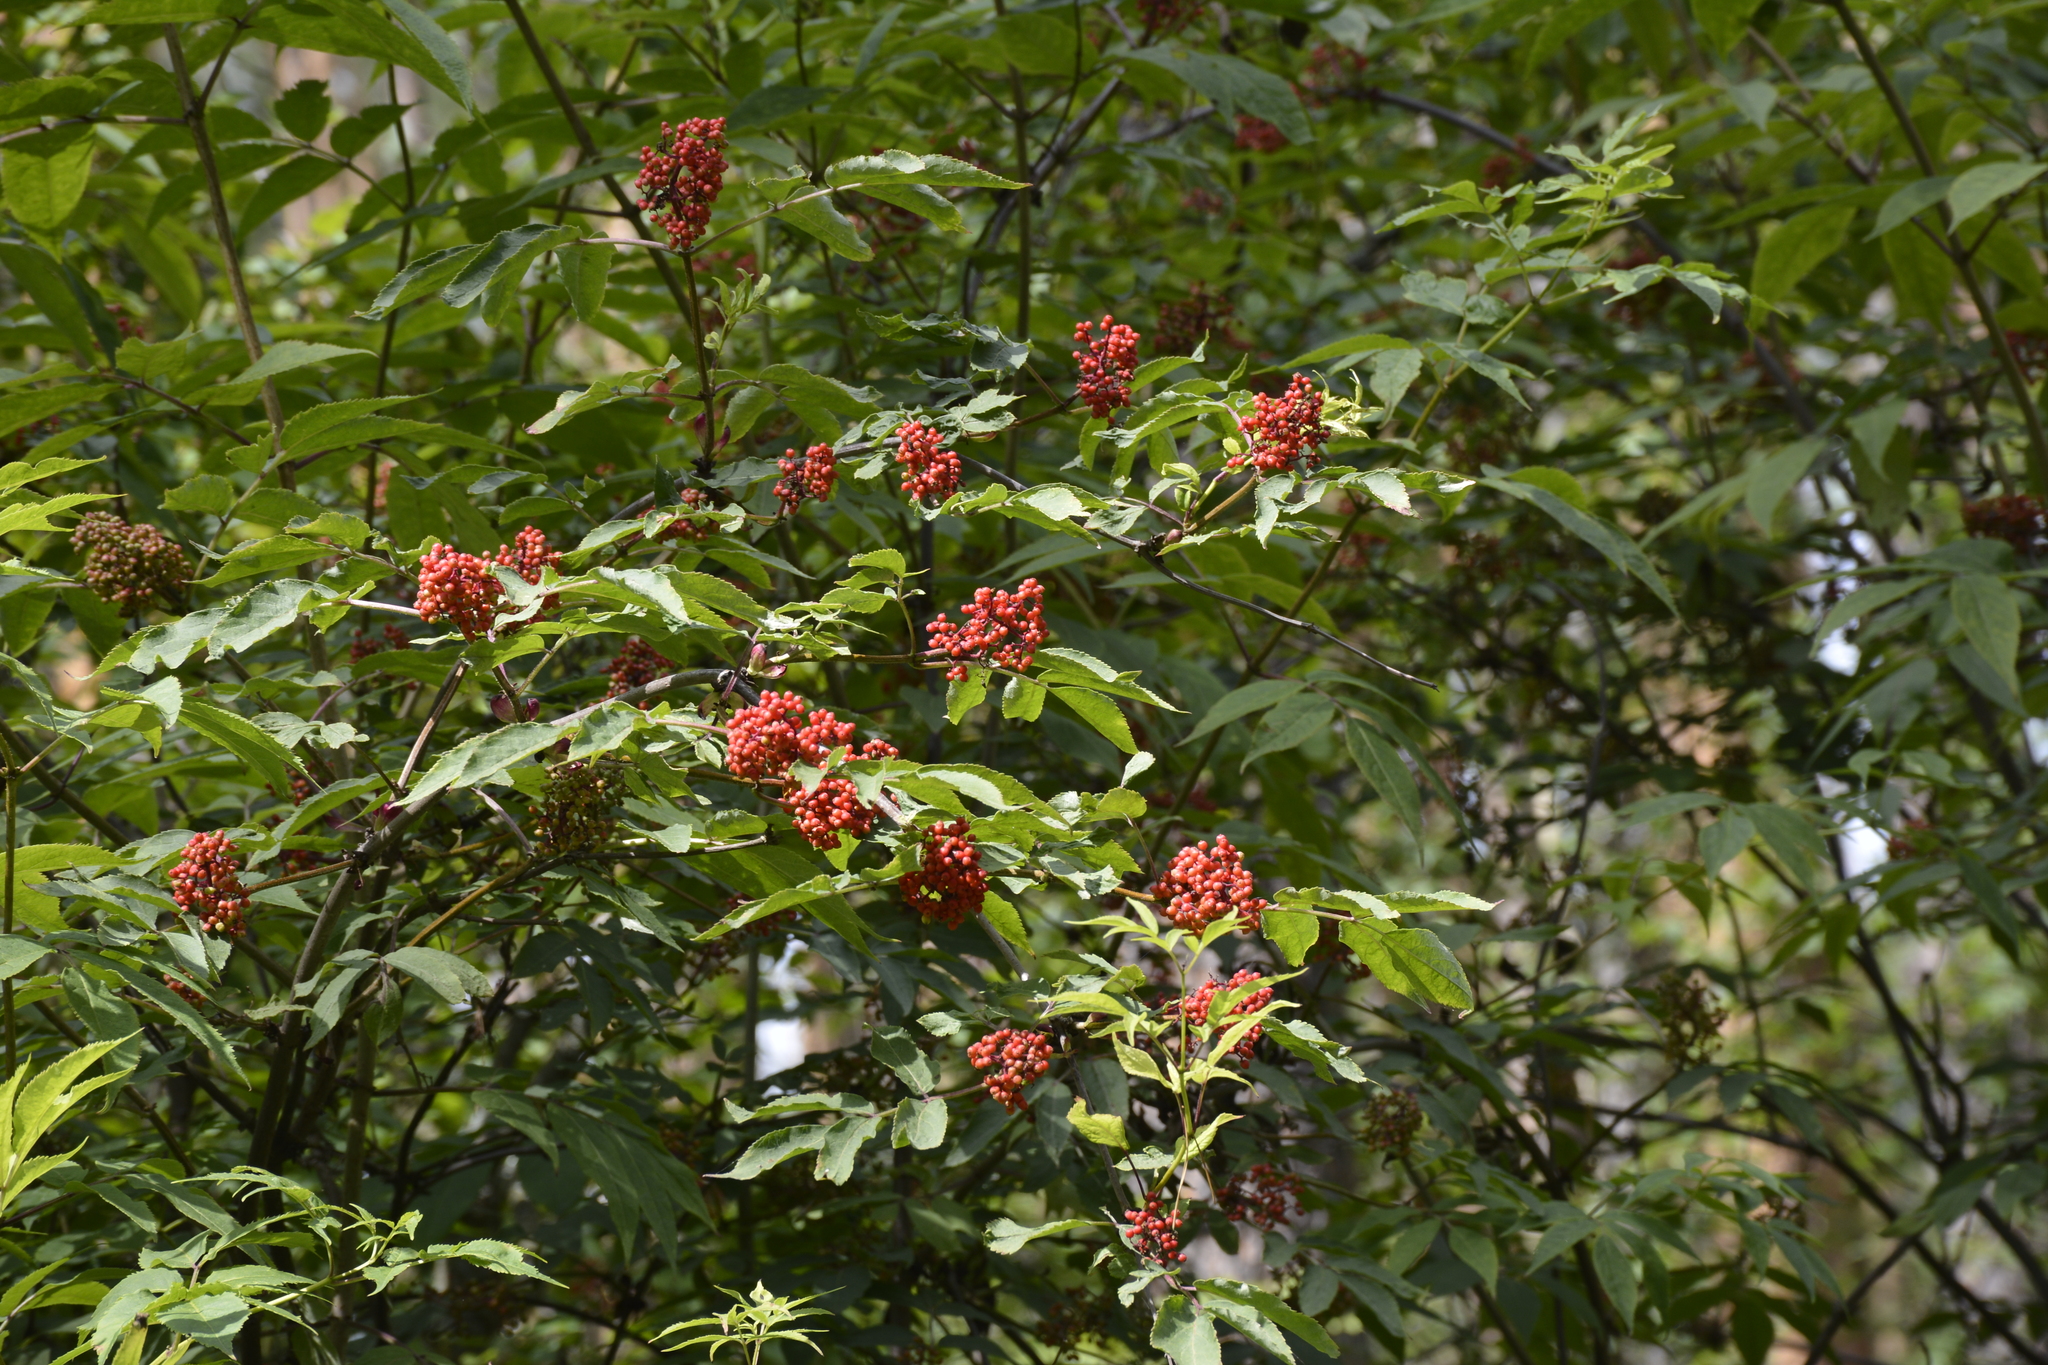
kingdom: Plantae
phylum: Tracheophyta
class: Magnoliopsida
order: Dipsacales
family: Viburnaceae
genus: Sambucus
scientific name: Sambucus racemosa
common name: Red-berried elder
